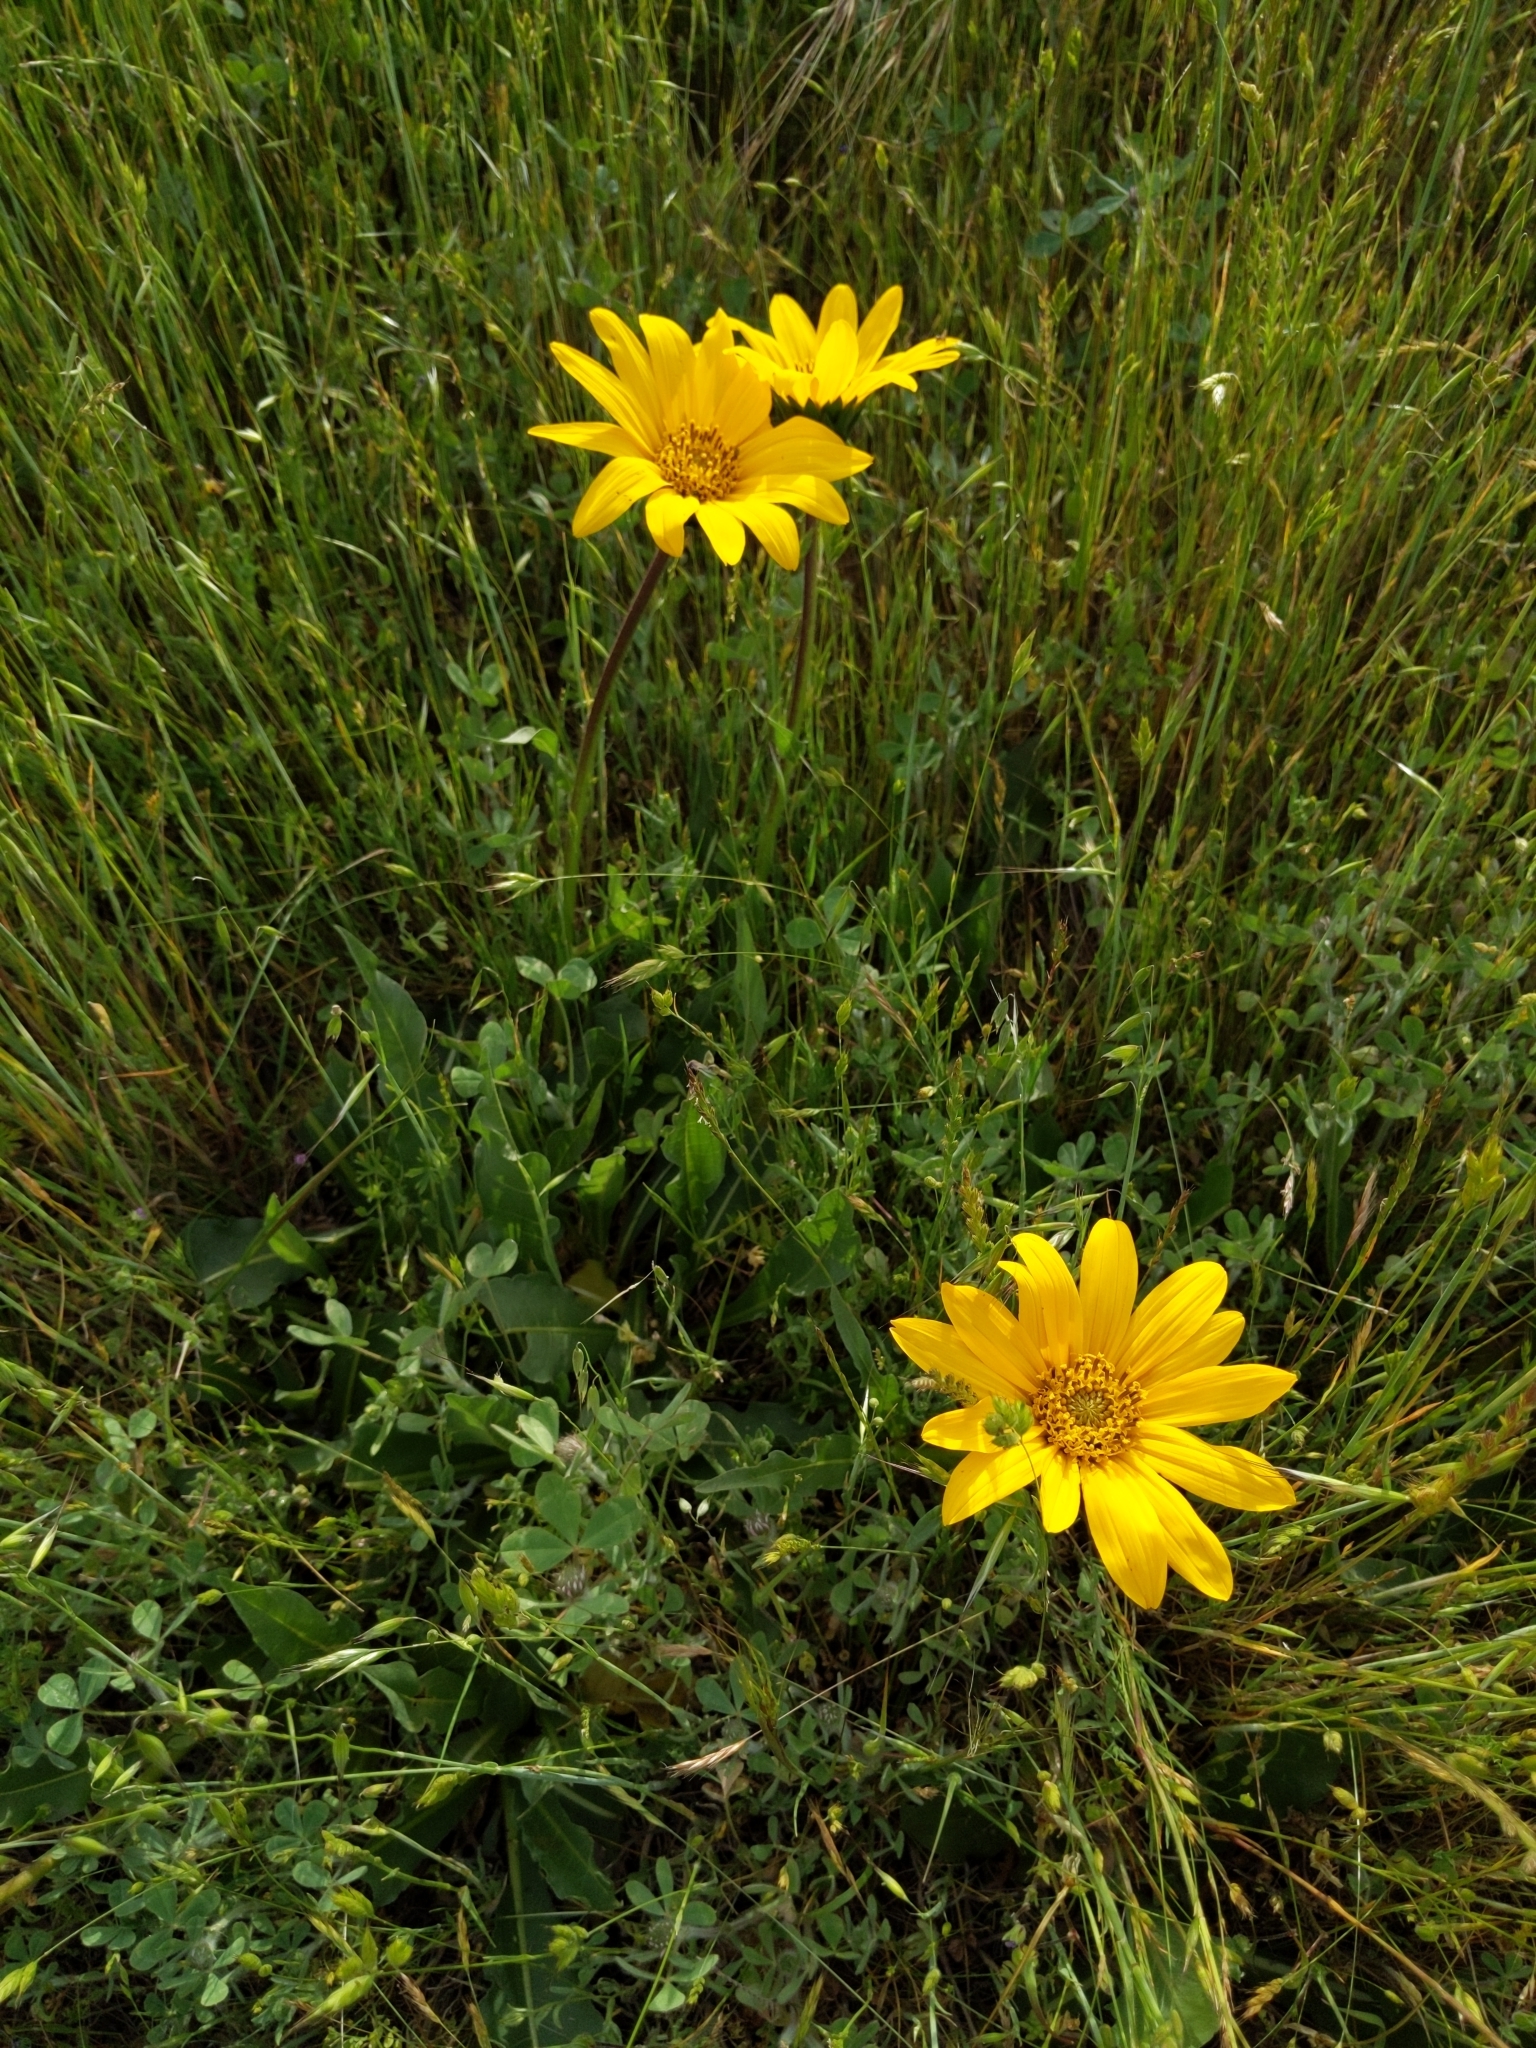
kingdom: Plantae
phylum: Tracheophyta
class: Magnoliopsida
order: Asterales
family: Asteraceae
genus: Wyethia
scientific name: Wyethia angustifolia
